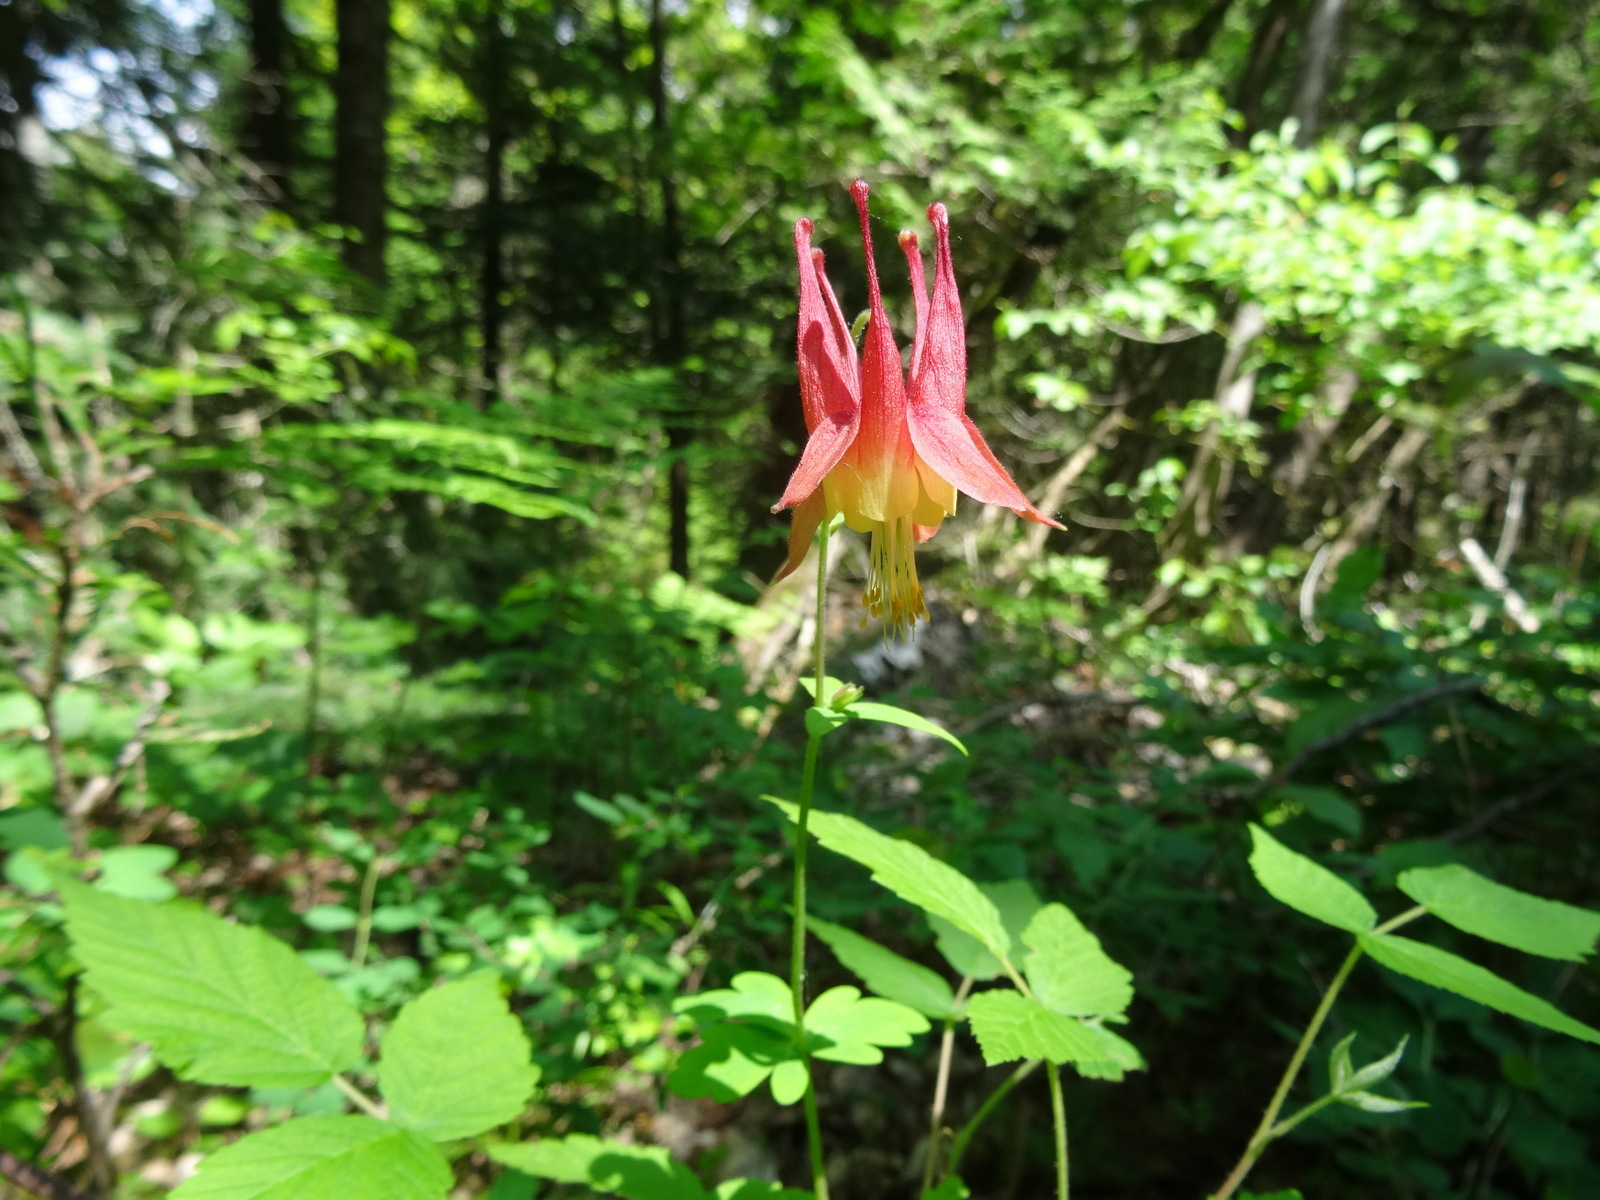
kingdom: Plantae
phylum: Tracheophyta
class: Magnoliopsida
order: Ranunculales
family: Ranunculaceae
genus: Aquilegia
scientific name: Aquilegia canadensis
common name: American columbine
